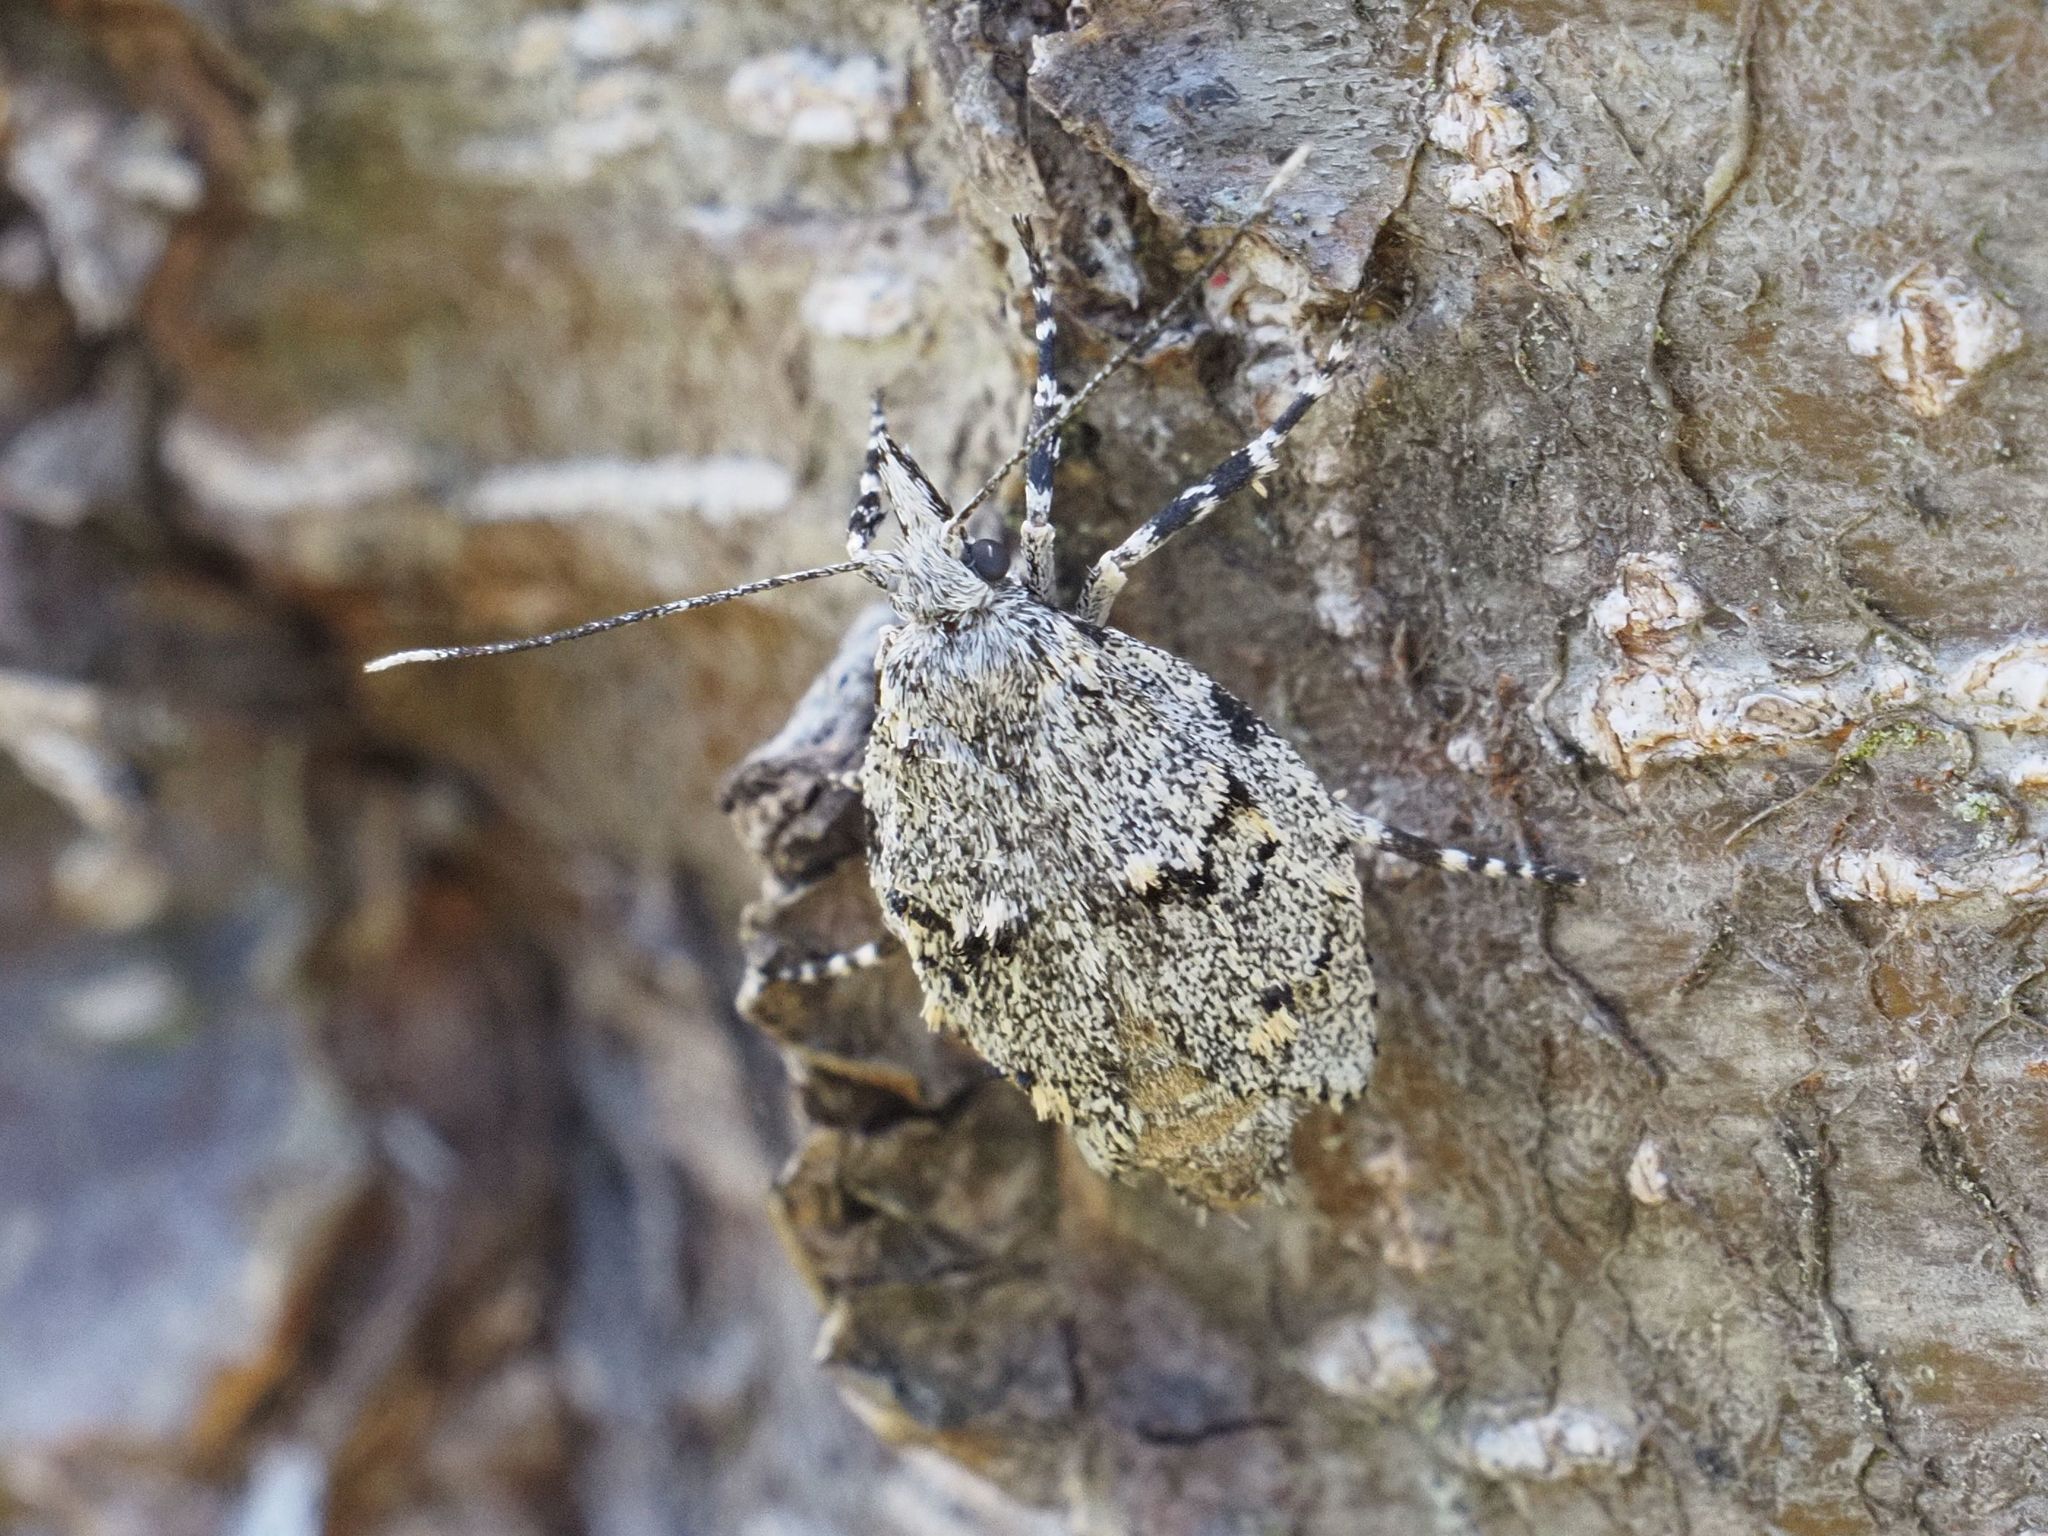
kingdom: Animalia
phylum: Arthropoda
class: Insecta
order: Lepidoptera
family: Lypusidae
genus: Diurnea
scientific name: Diurnea fagella
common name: March tubic
